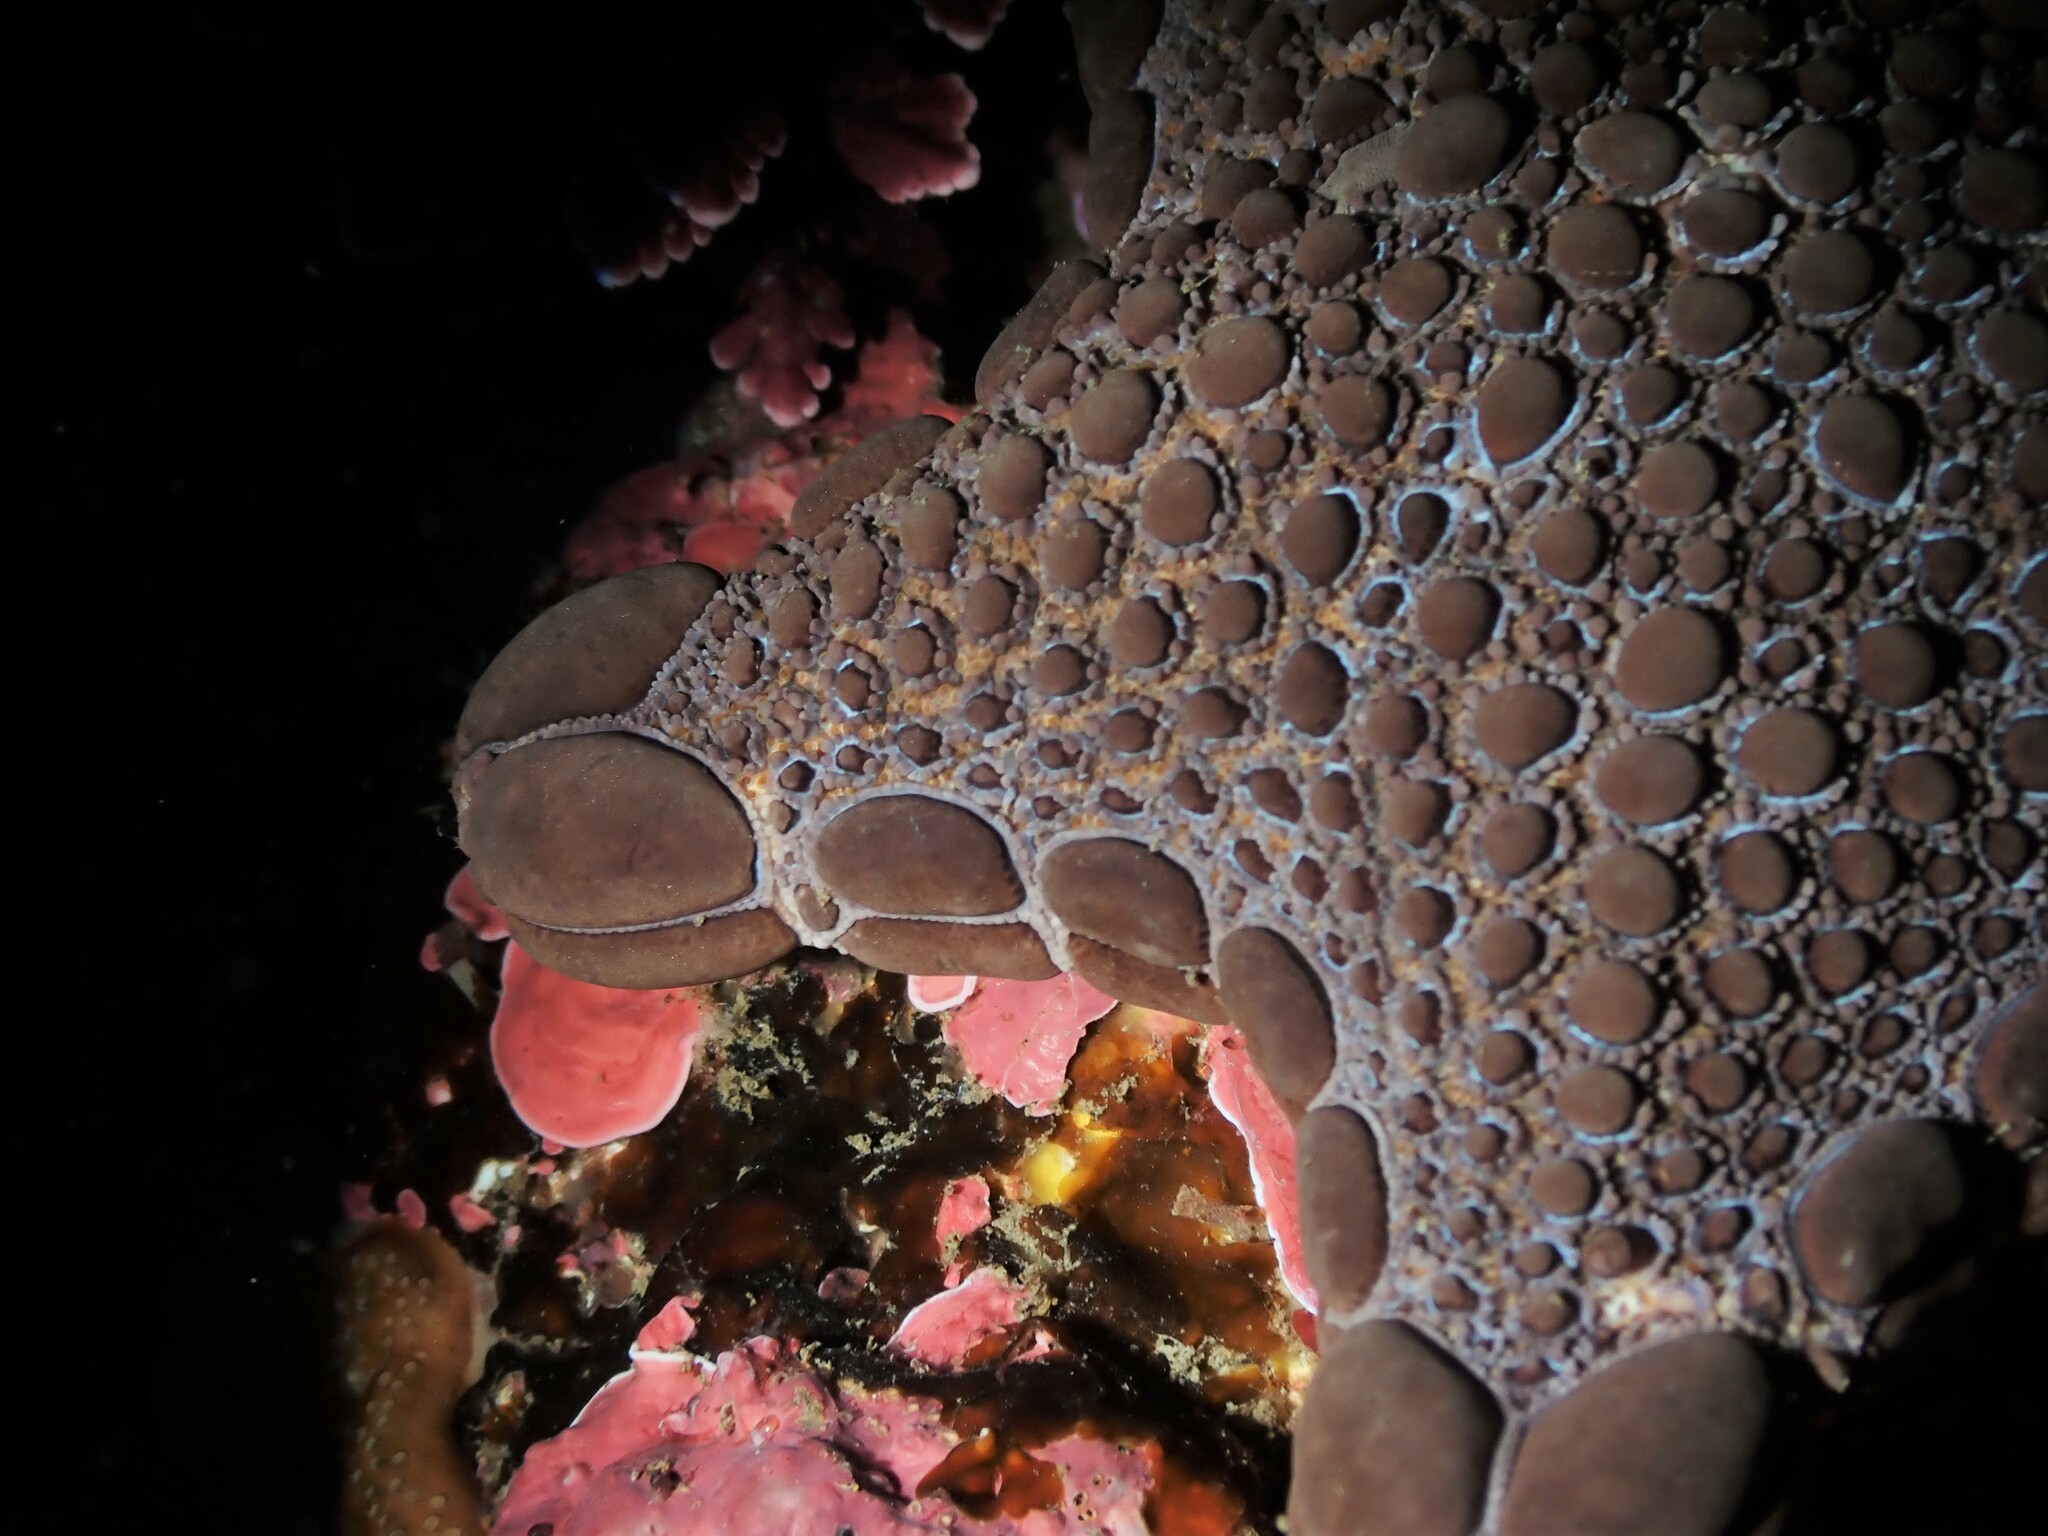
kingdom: Animalia
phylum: Echinodermata
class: Asteroidea
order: Valvatida
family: Goniasteridae
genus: Pentagonaster
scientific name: Pentagonaster pulchellus
